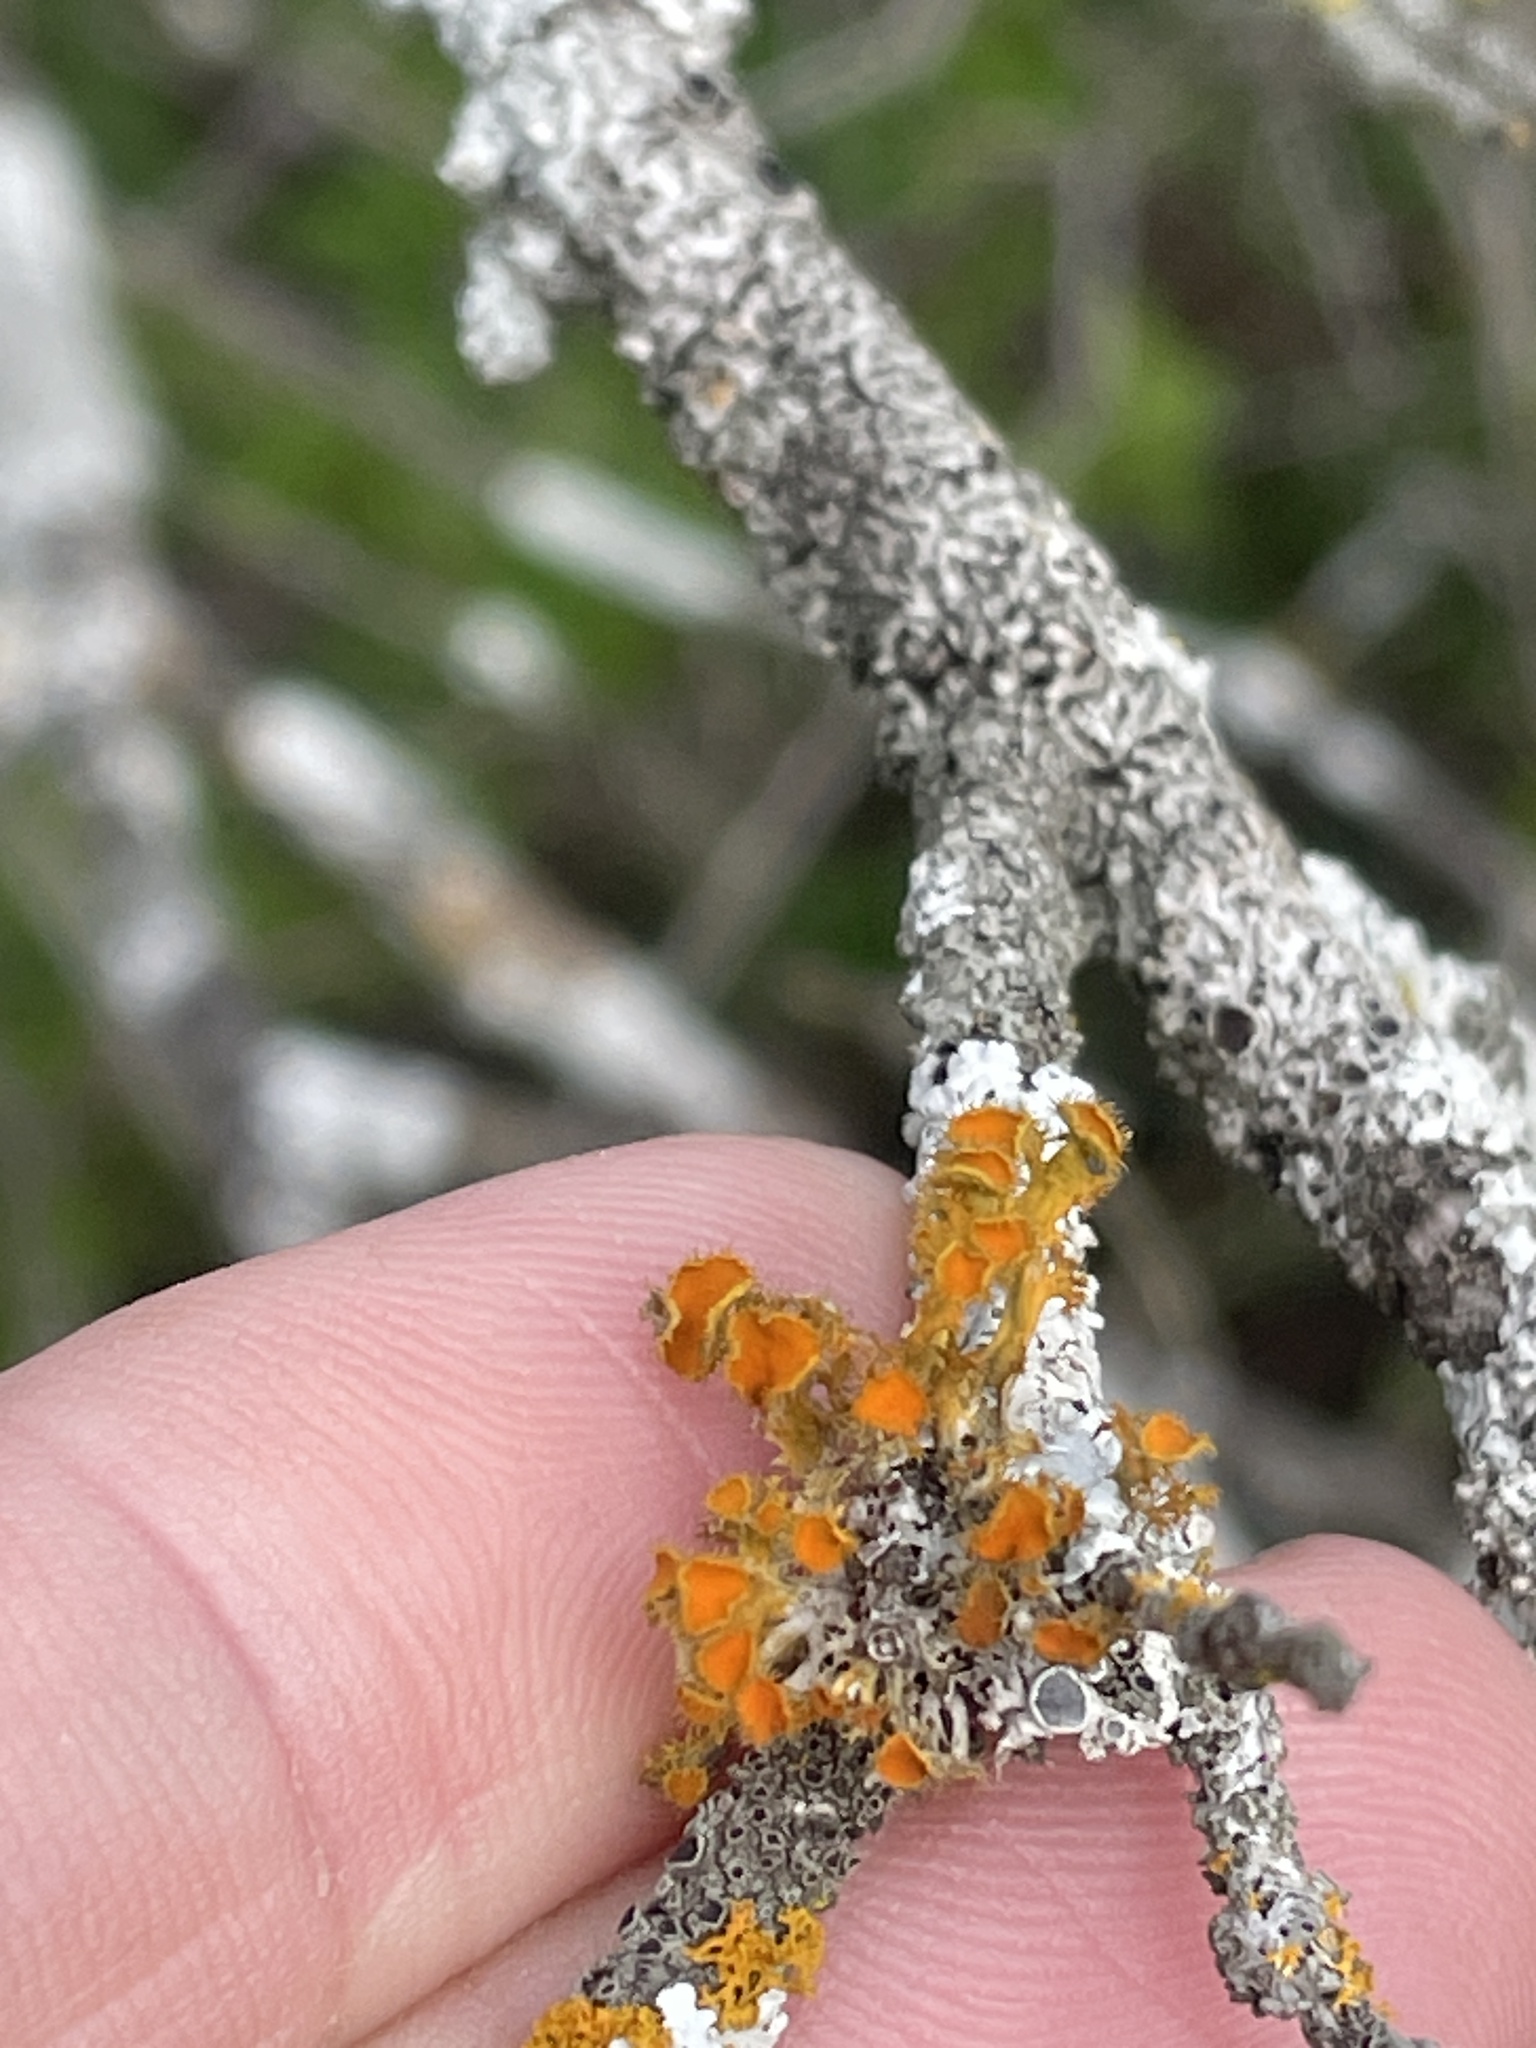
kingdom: Fungi
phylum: Ascomycota
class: Lecanoromycetes
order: Teloschistales
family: Teloschistaceae
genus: Niorma
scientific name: Niorma chrysophthalma
